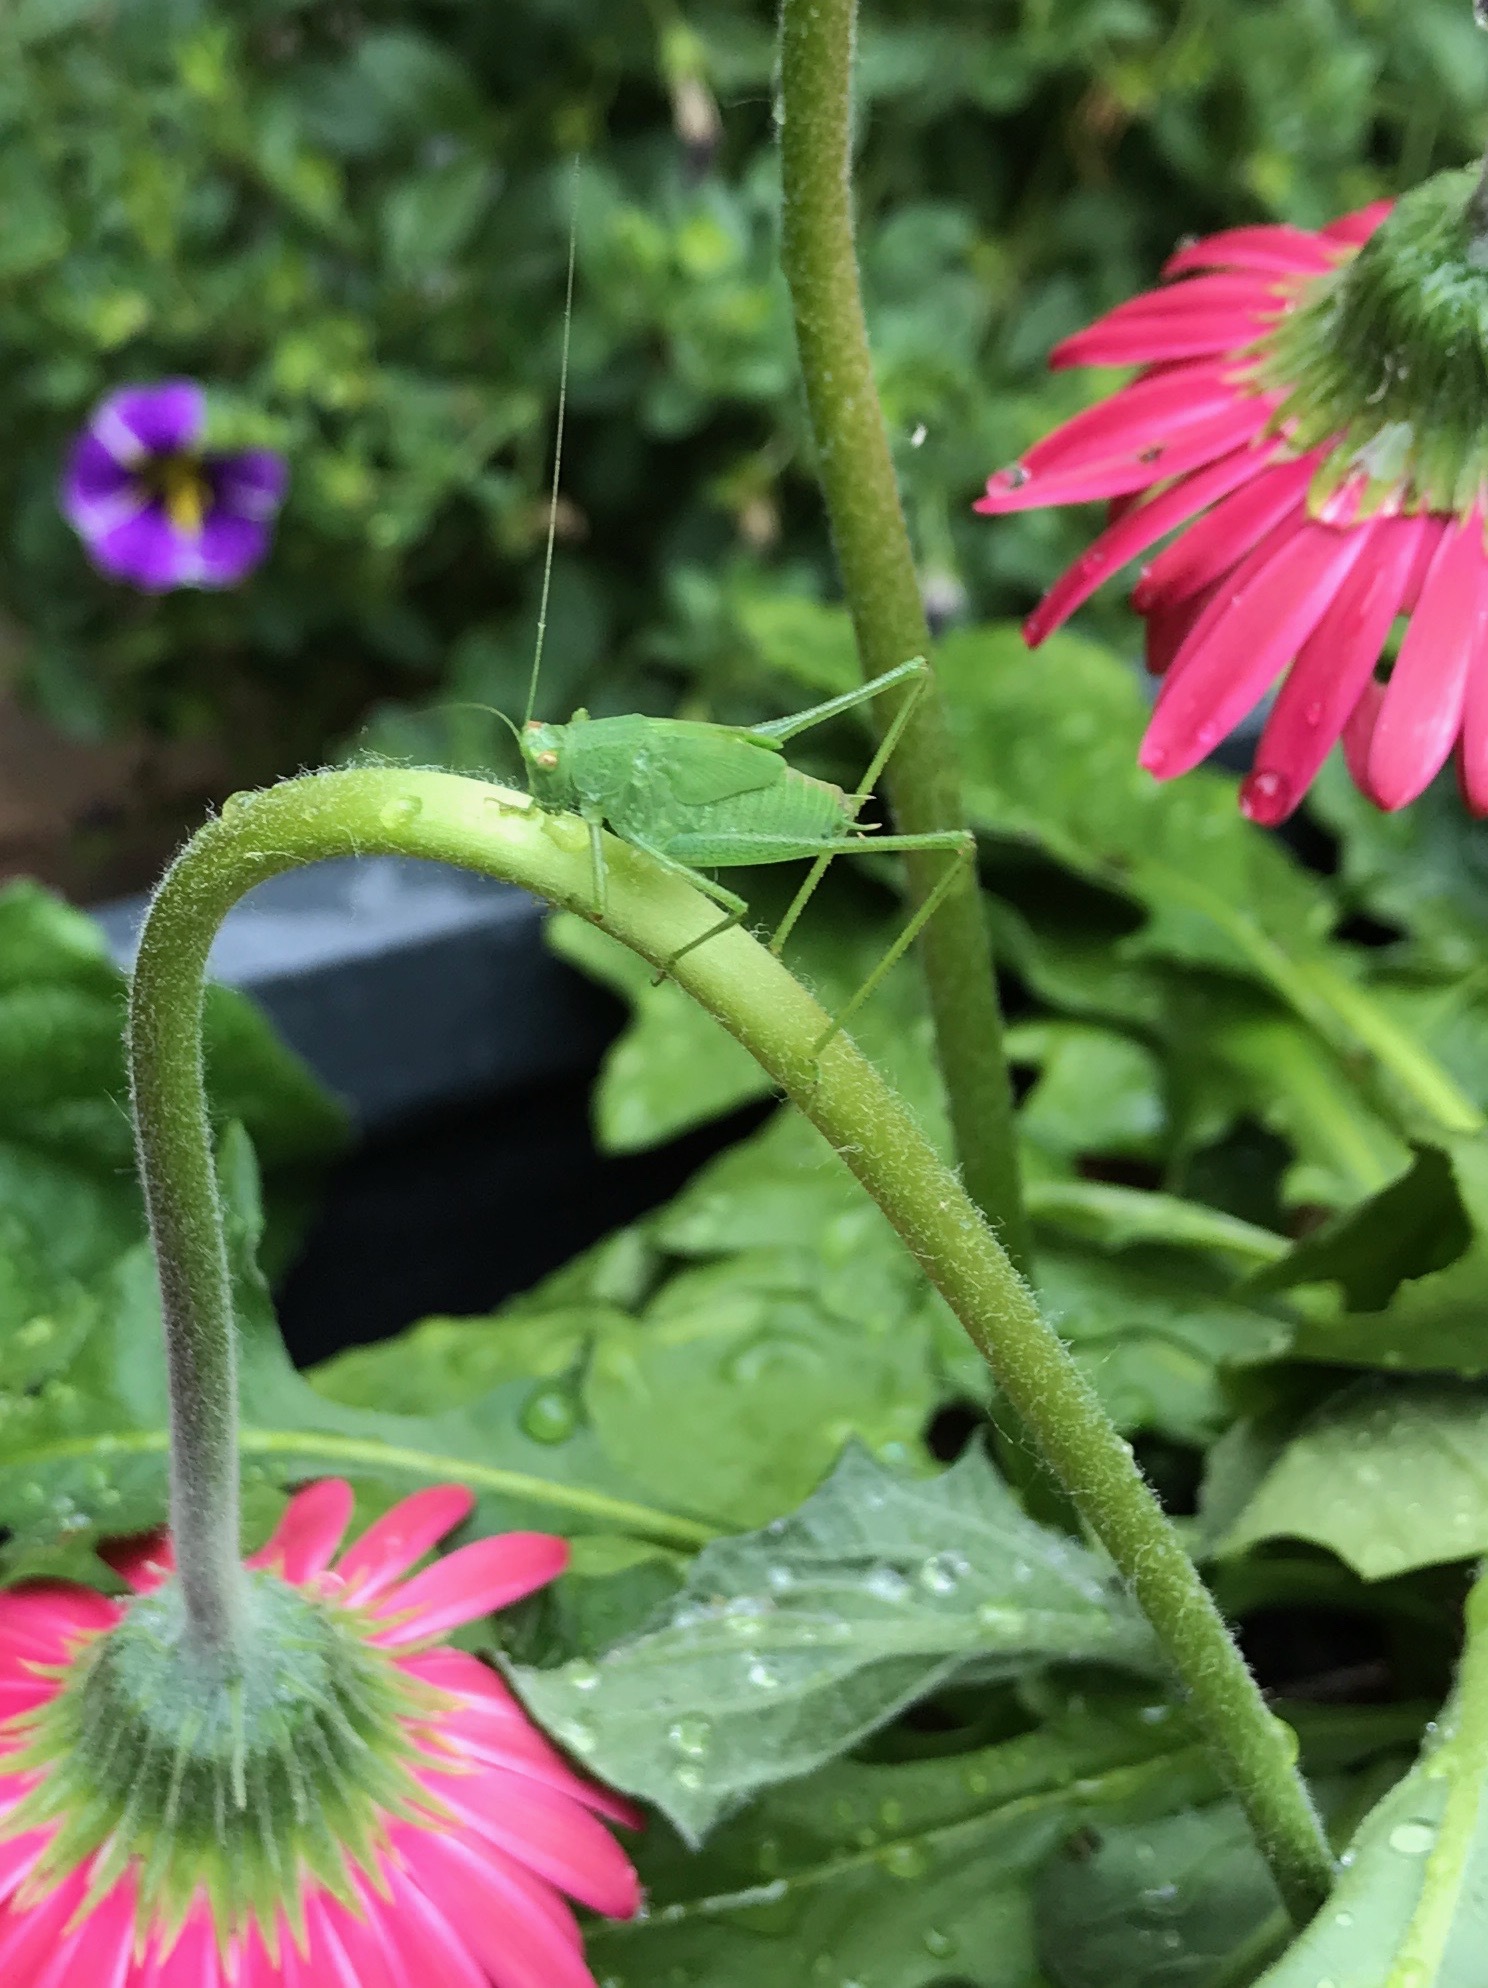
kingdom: Animalia
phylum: Arthropoda
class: Insecta
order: Orthoptera
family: Tettigoniidae
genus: Phaneroptera
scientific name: Phaneroptera nana
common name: Southern sickle bush-cricket
